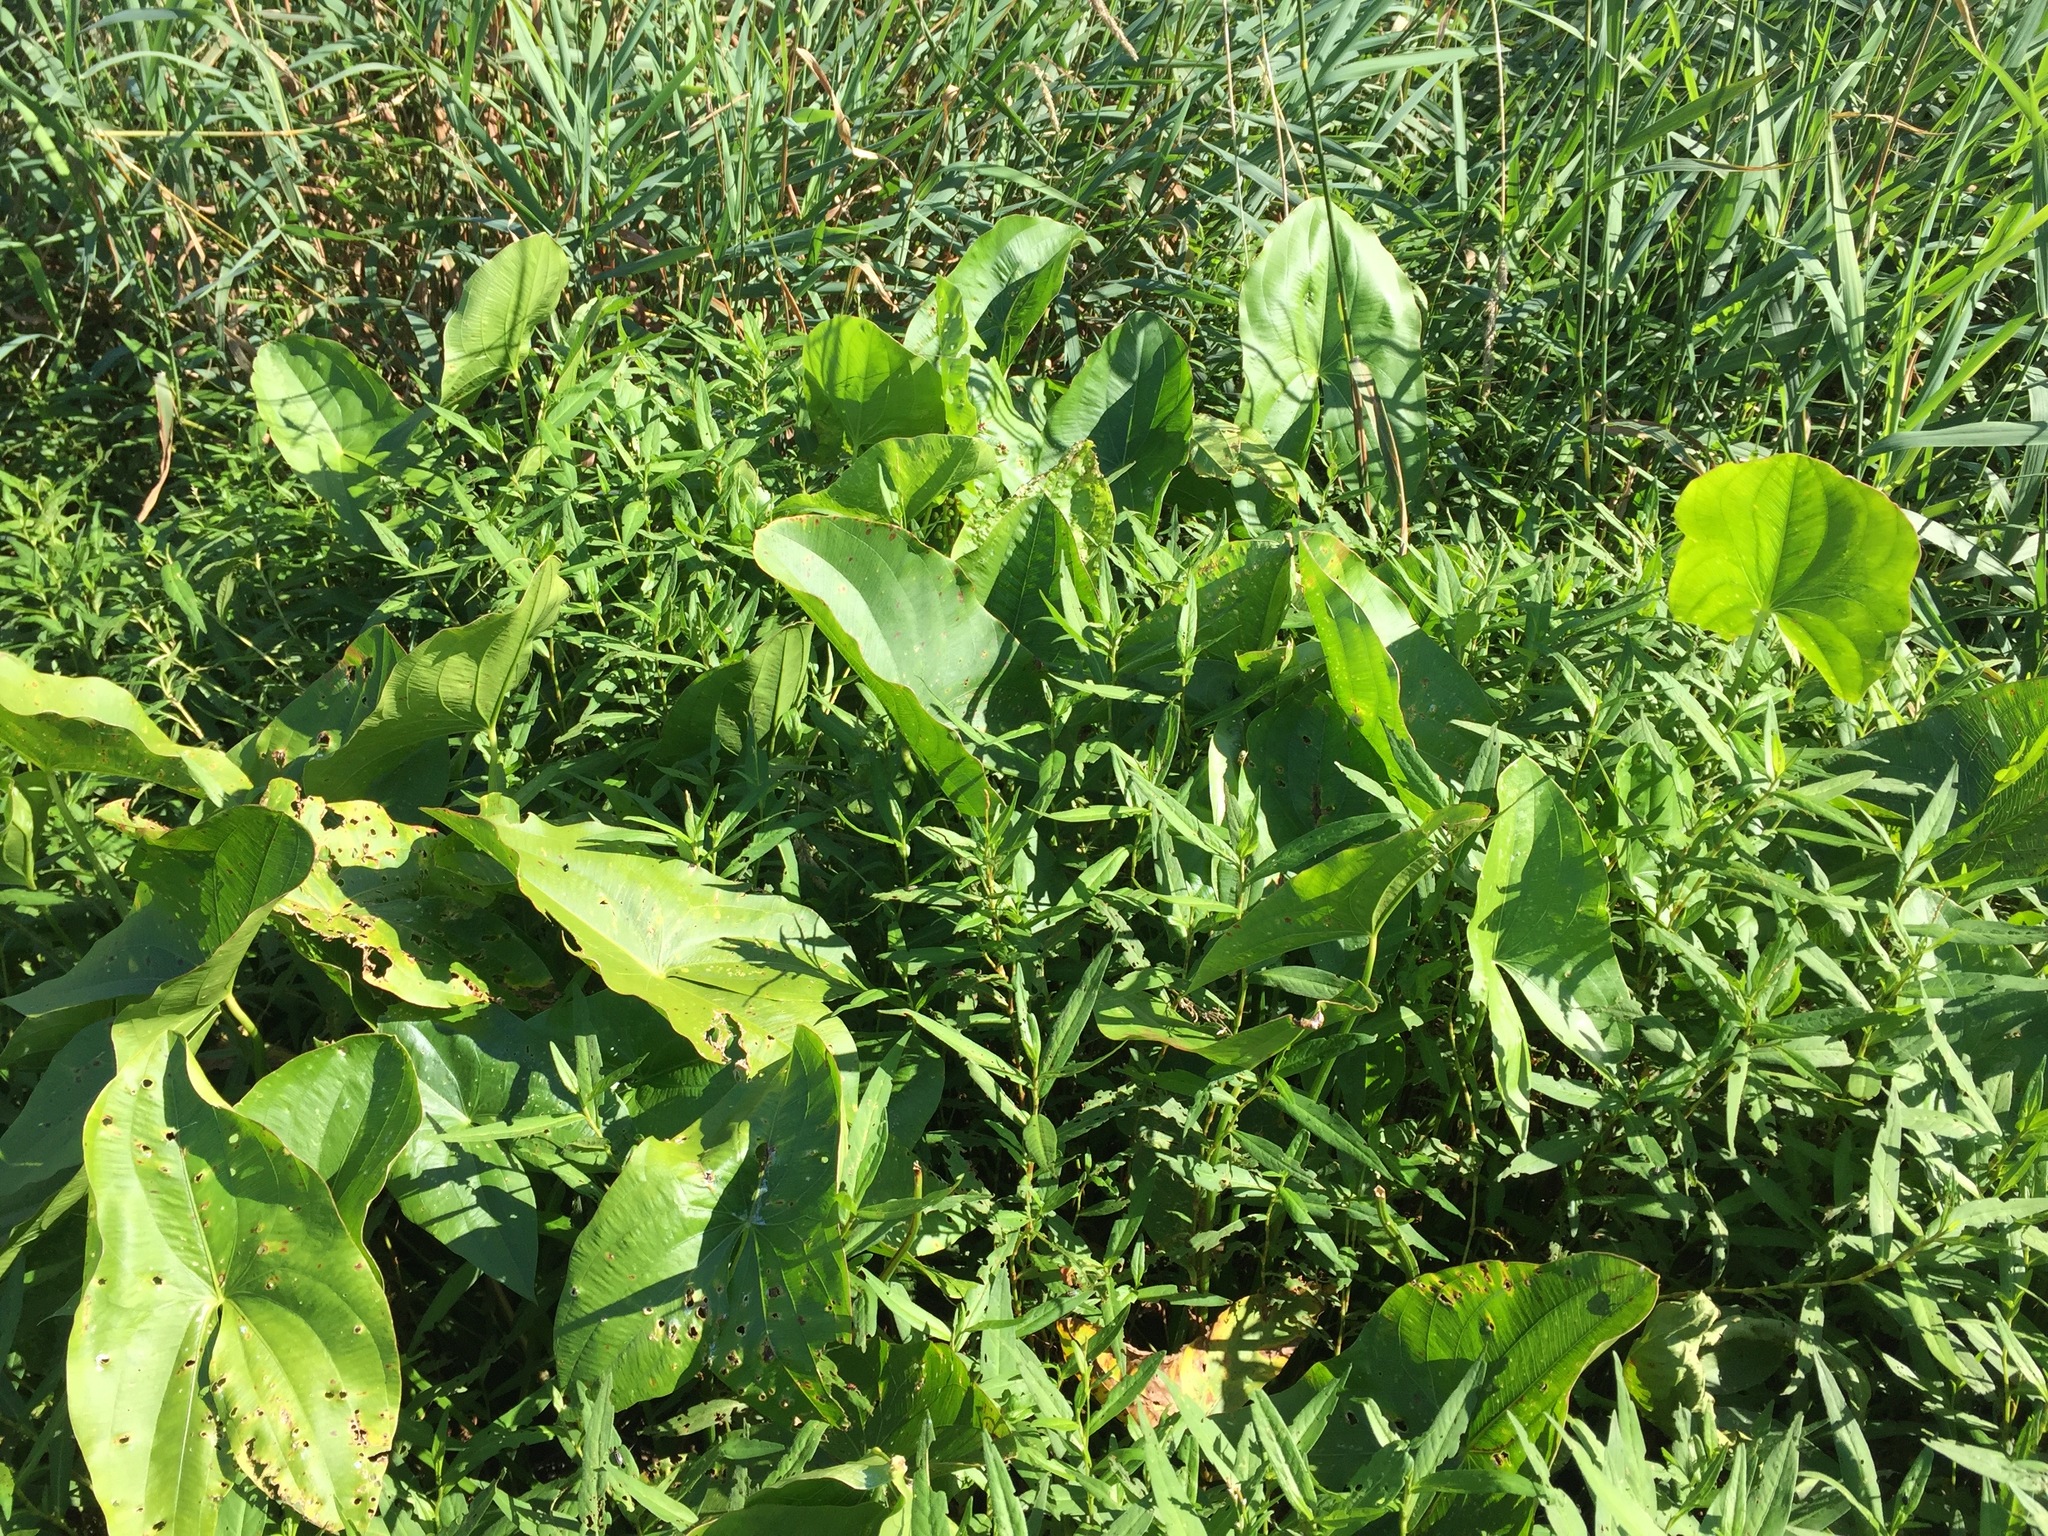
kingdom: Plantae
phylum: Tracheophyta
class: Liliopsida
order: Alismatales
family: Alismataceae
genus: Sagittaria
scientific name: Sagittaria latifolia
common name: Duck-potato
